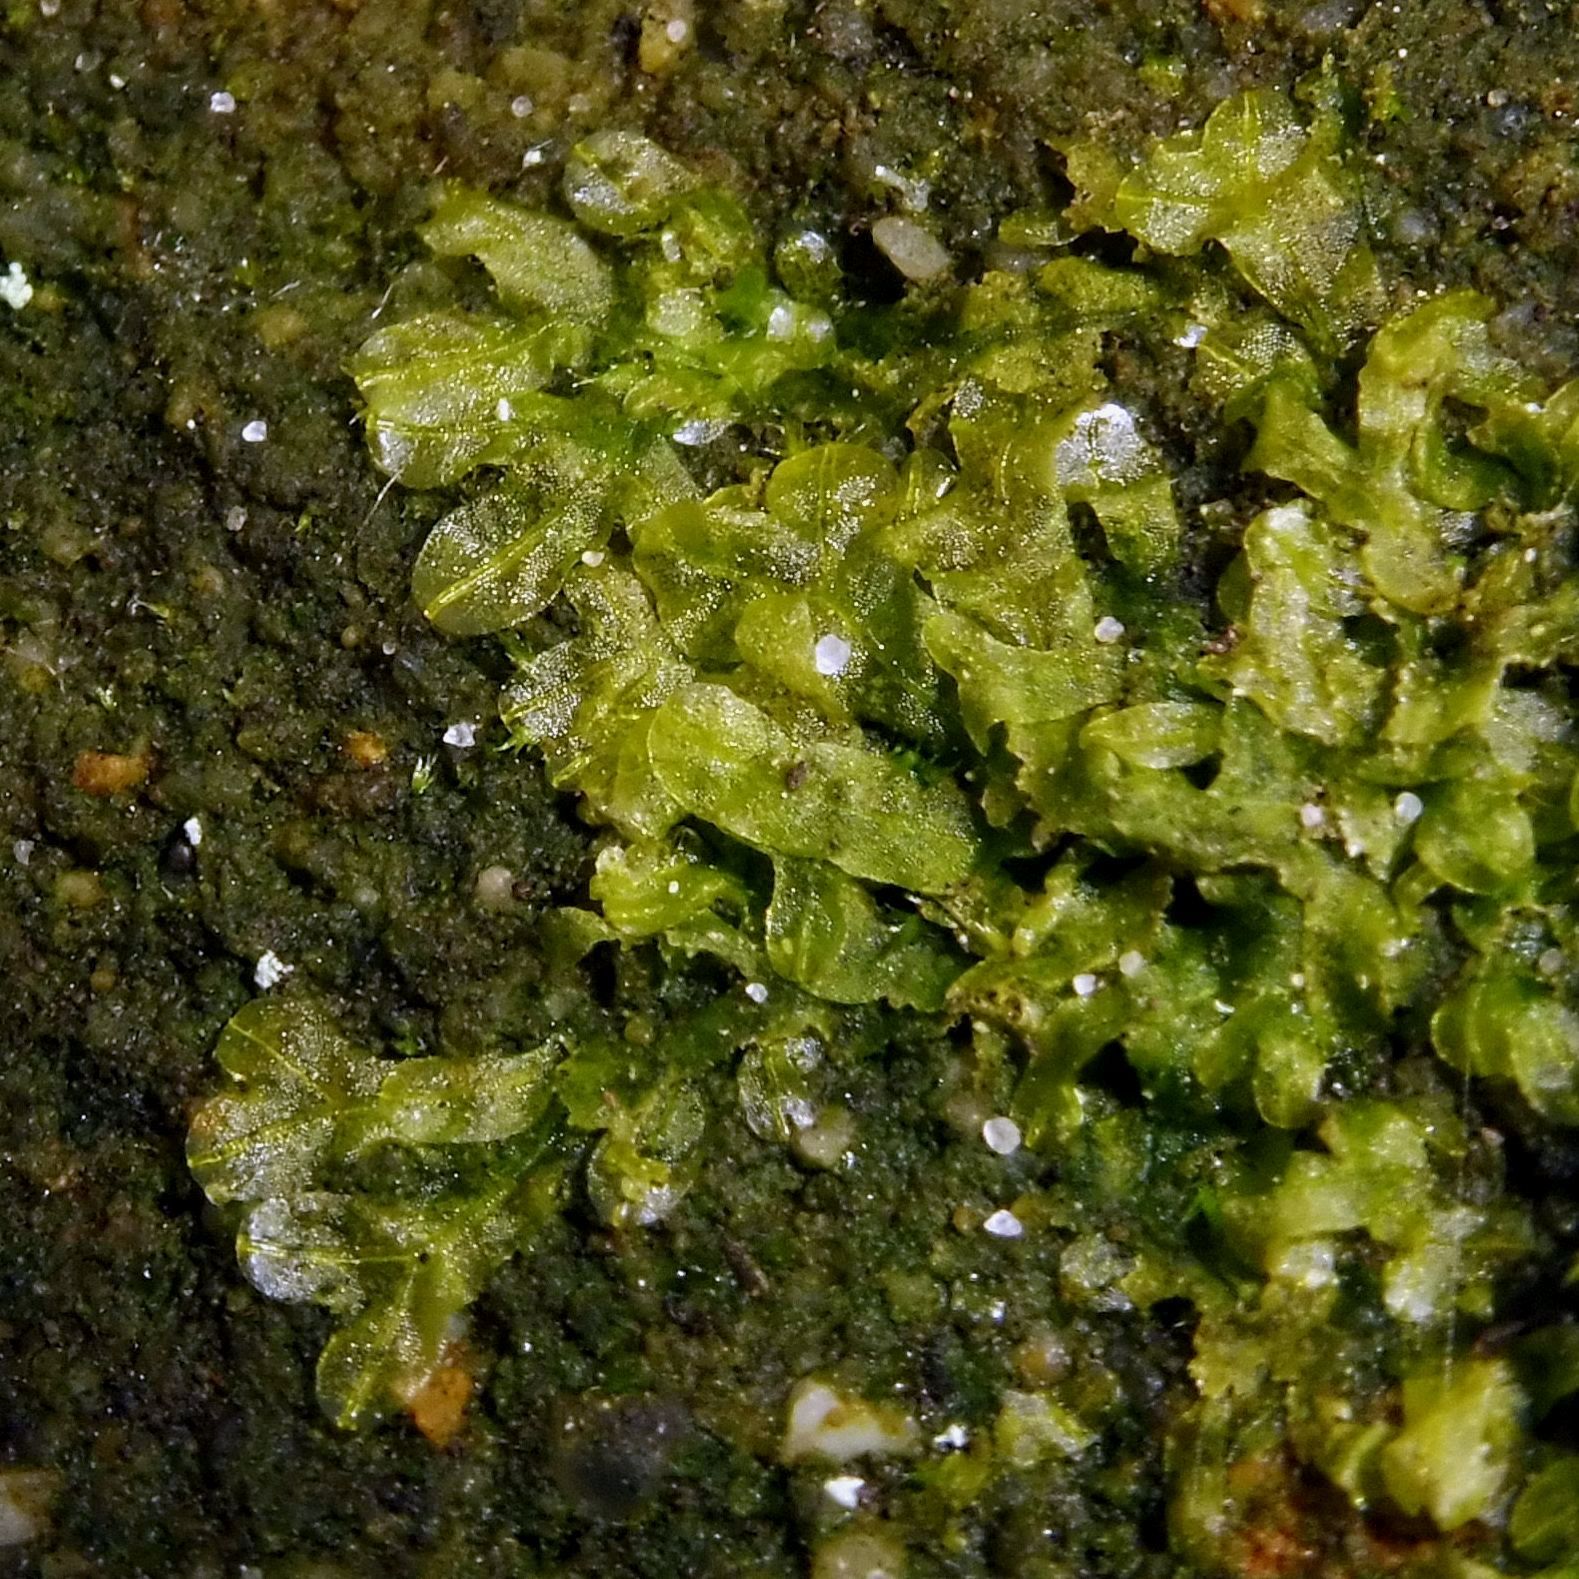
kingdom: Plantae
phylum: Marchantiophyta
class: Jungermanniopsida
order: Metzgeriales
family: Metzgeriaceae
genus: Metzgeria
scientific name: Metzgeria furcata
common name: Forked veilwort
